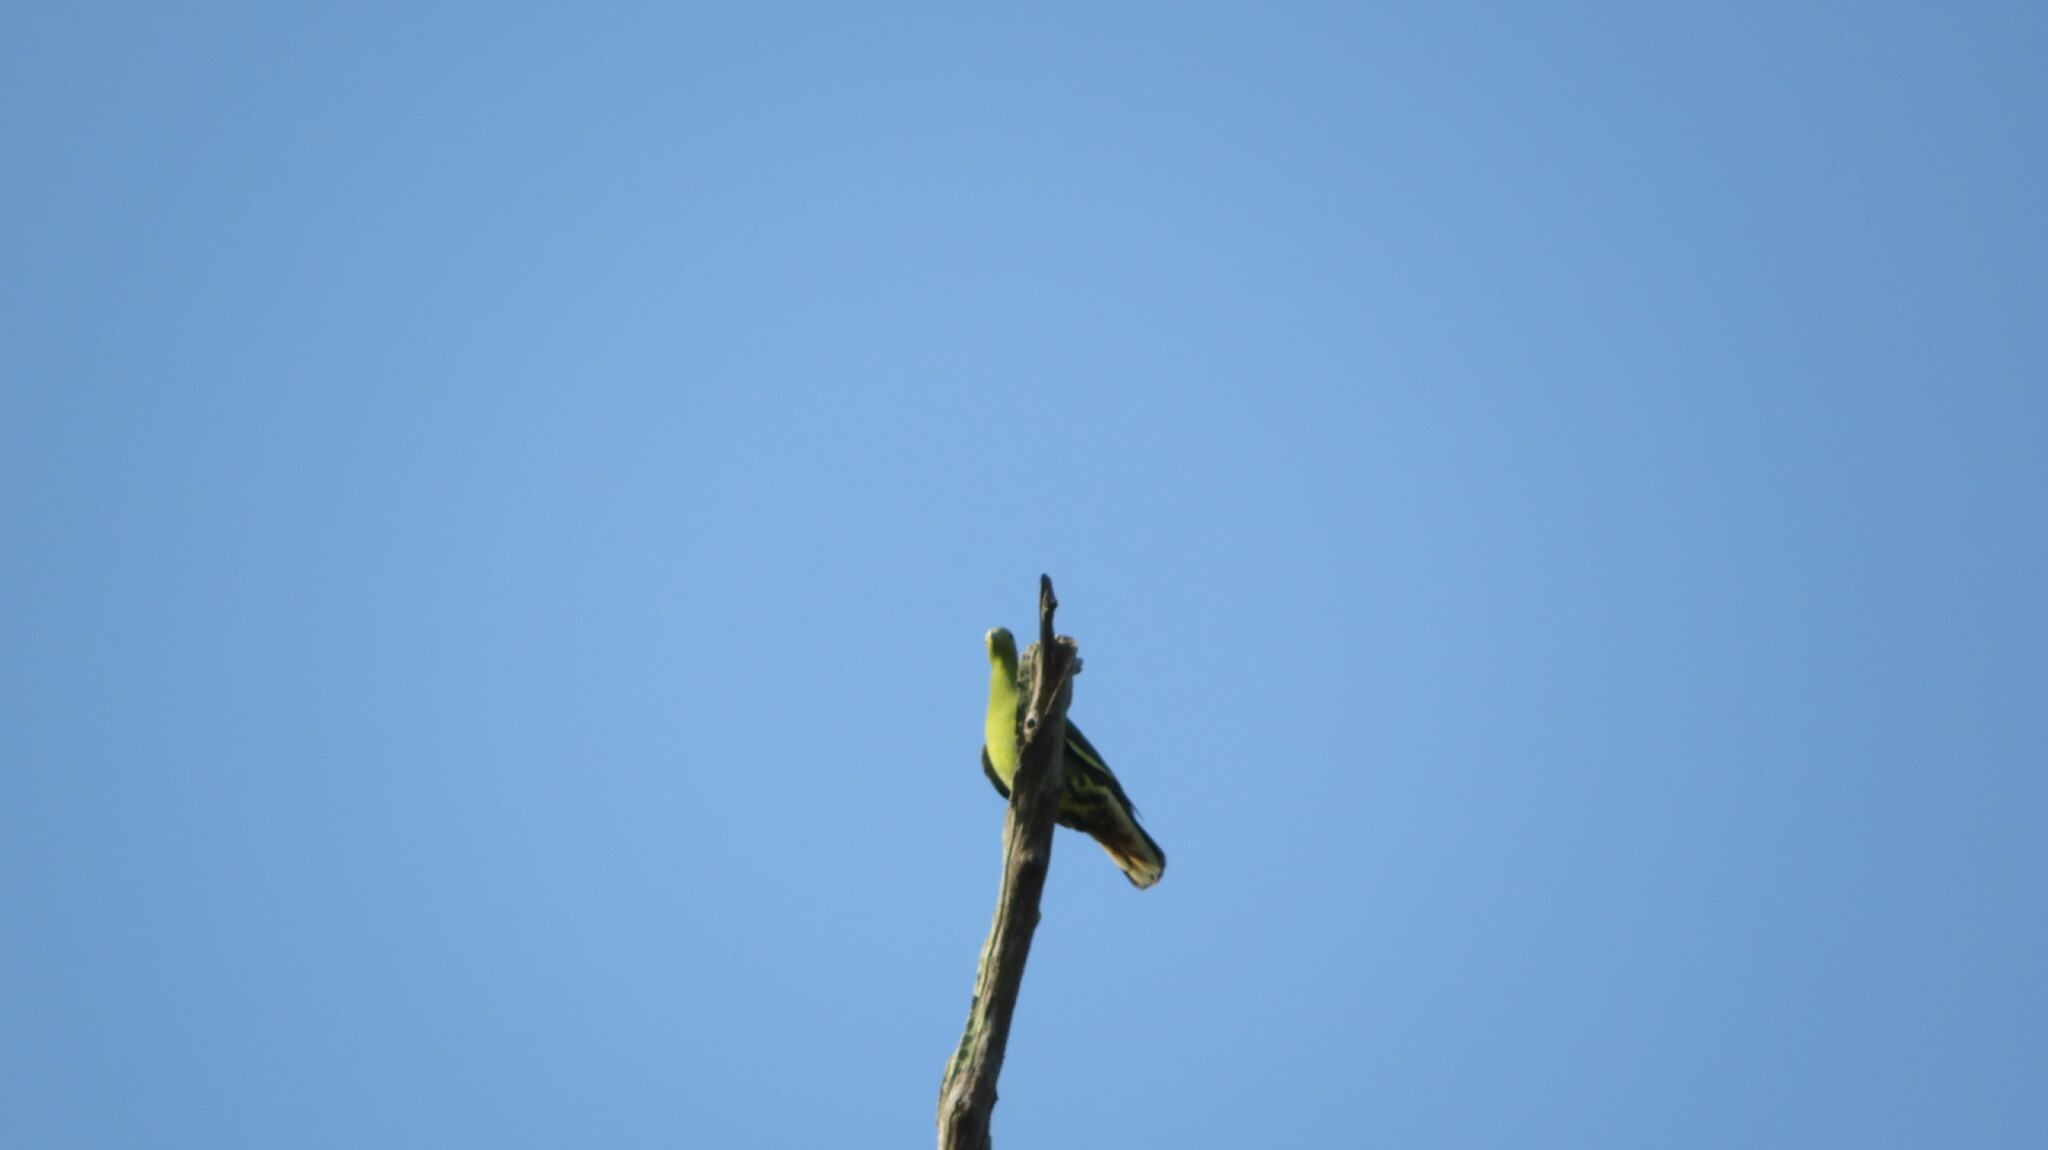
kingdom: Animalia
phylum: Chordata
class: Aves
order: Columbiformes
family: Columbidae
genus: Treron
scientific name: Treron vernans
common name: Pink-necked green pigeon
